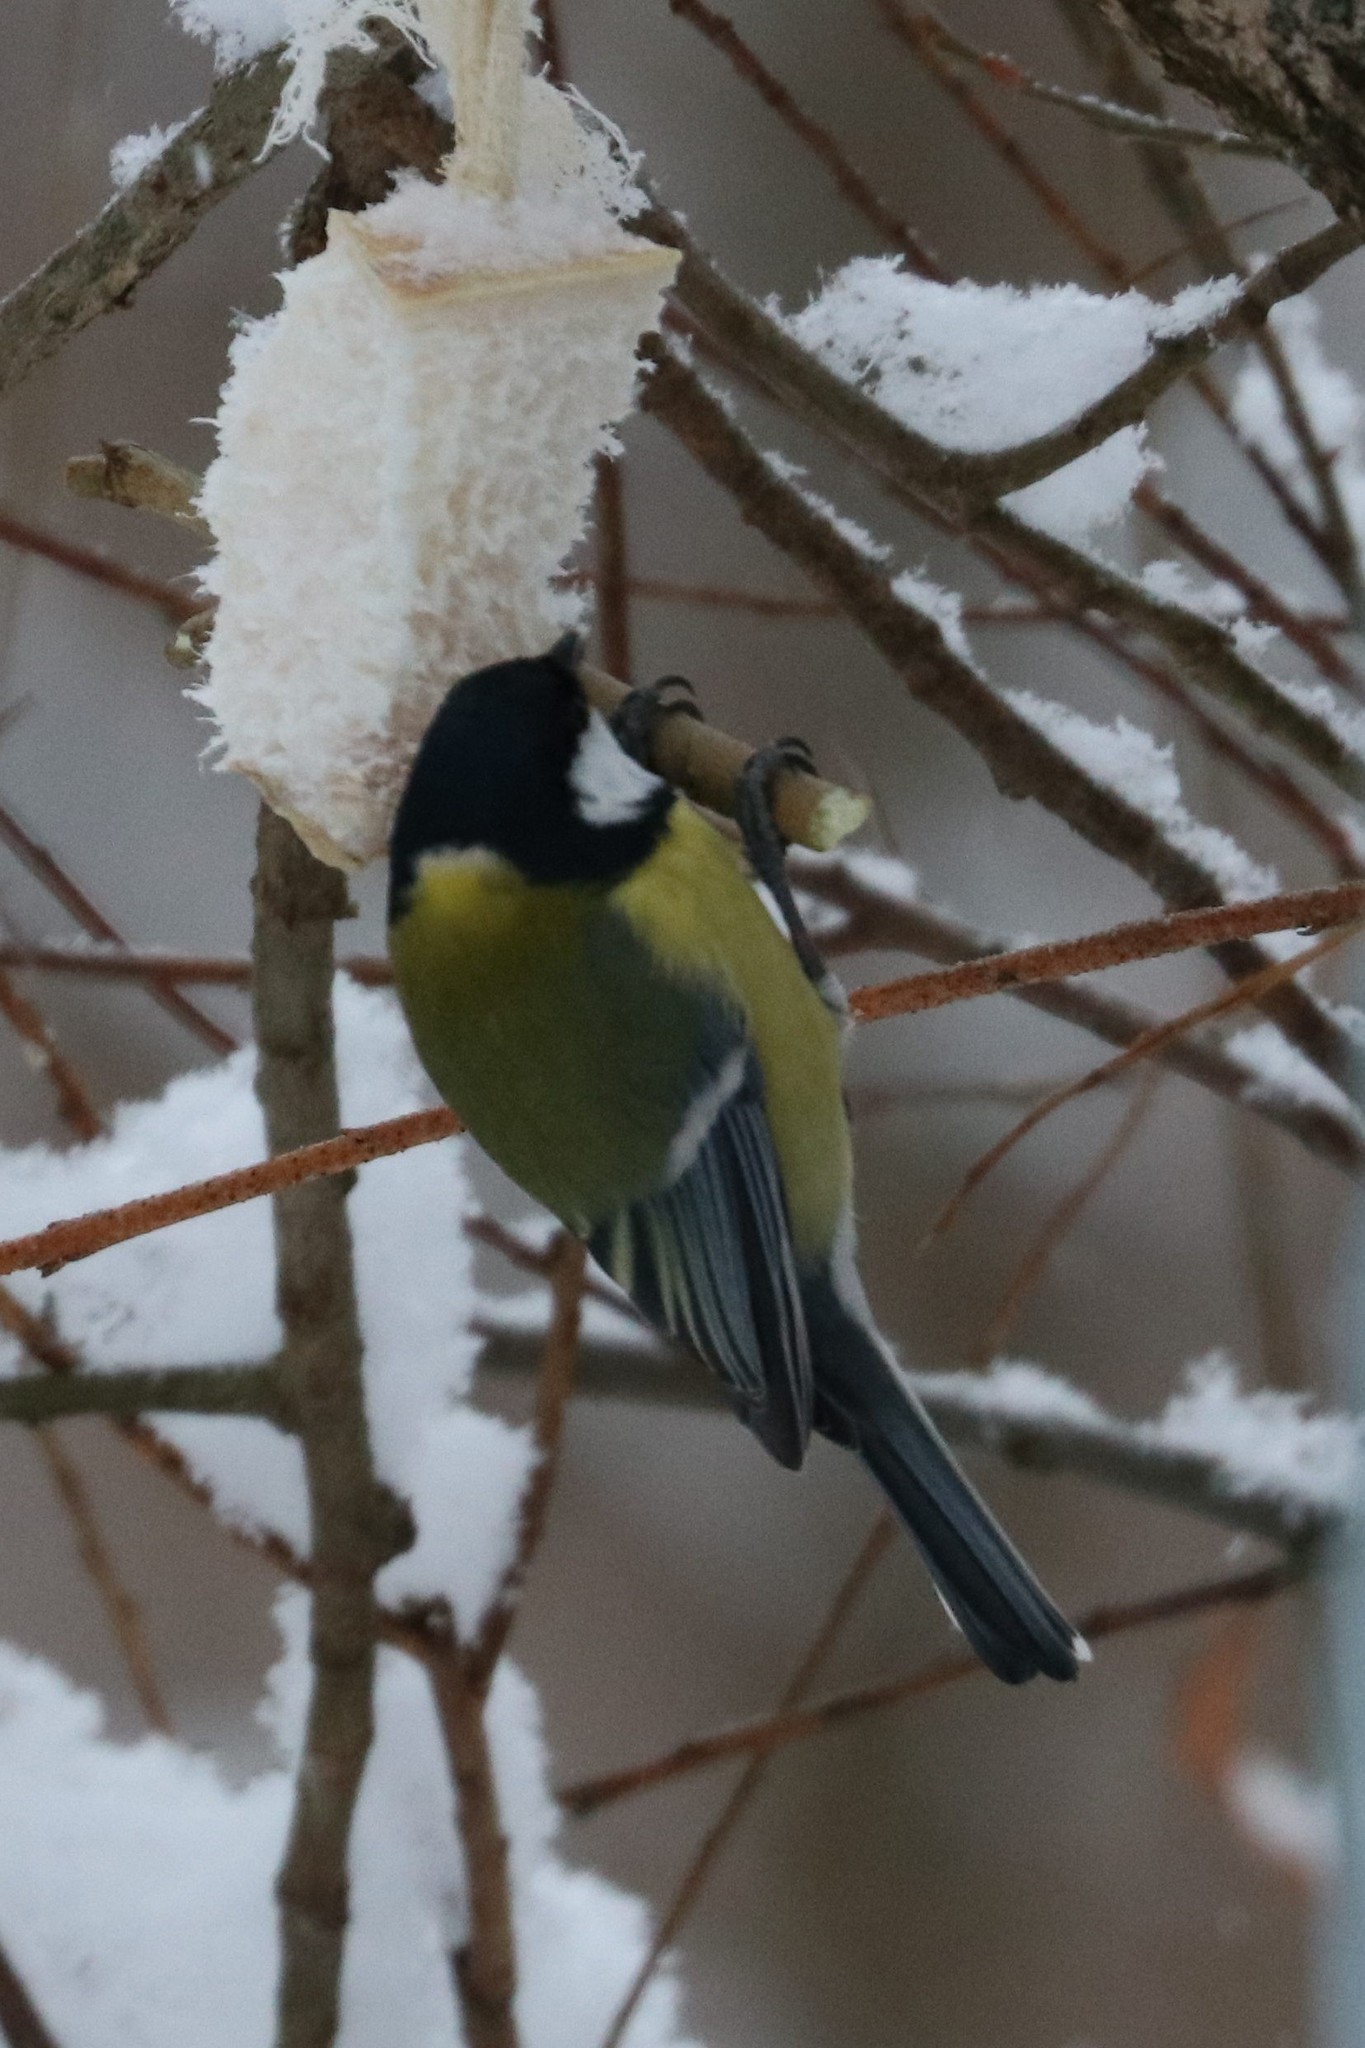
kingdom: Animalia
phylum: Chordata
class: Aves
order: Passeriformes
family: Paridae
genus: Parus
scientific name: Parus major
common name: Great tit
